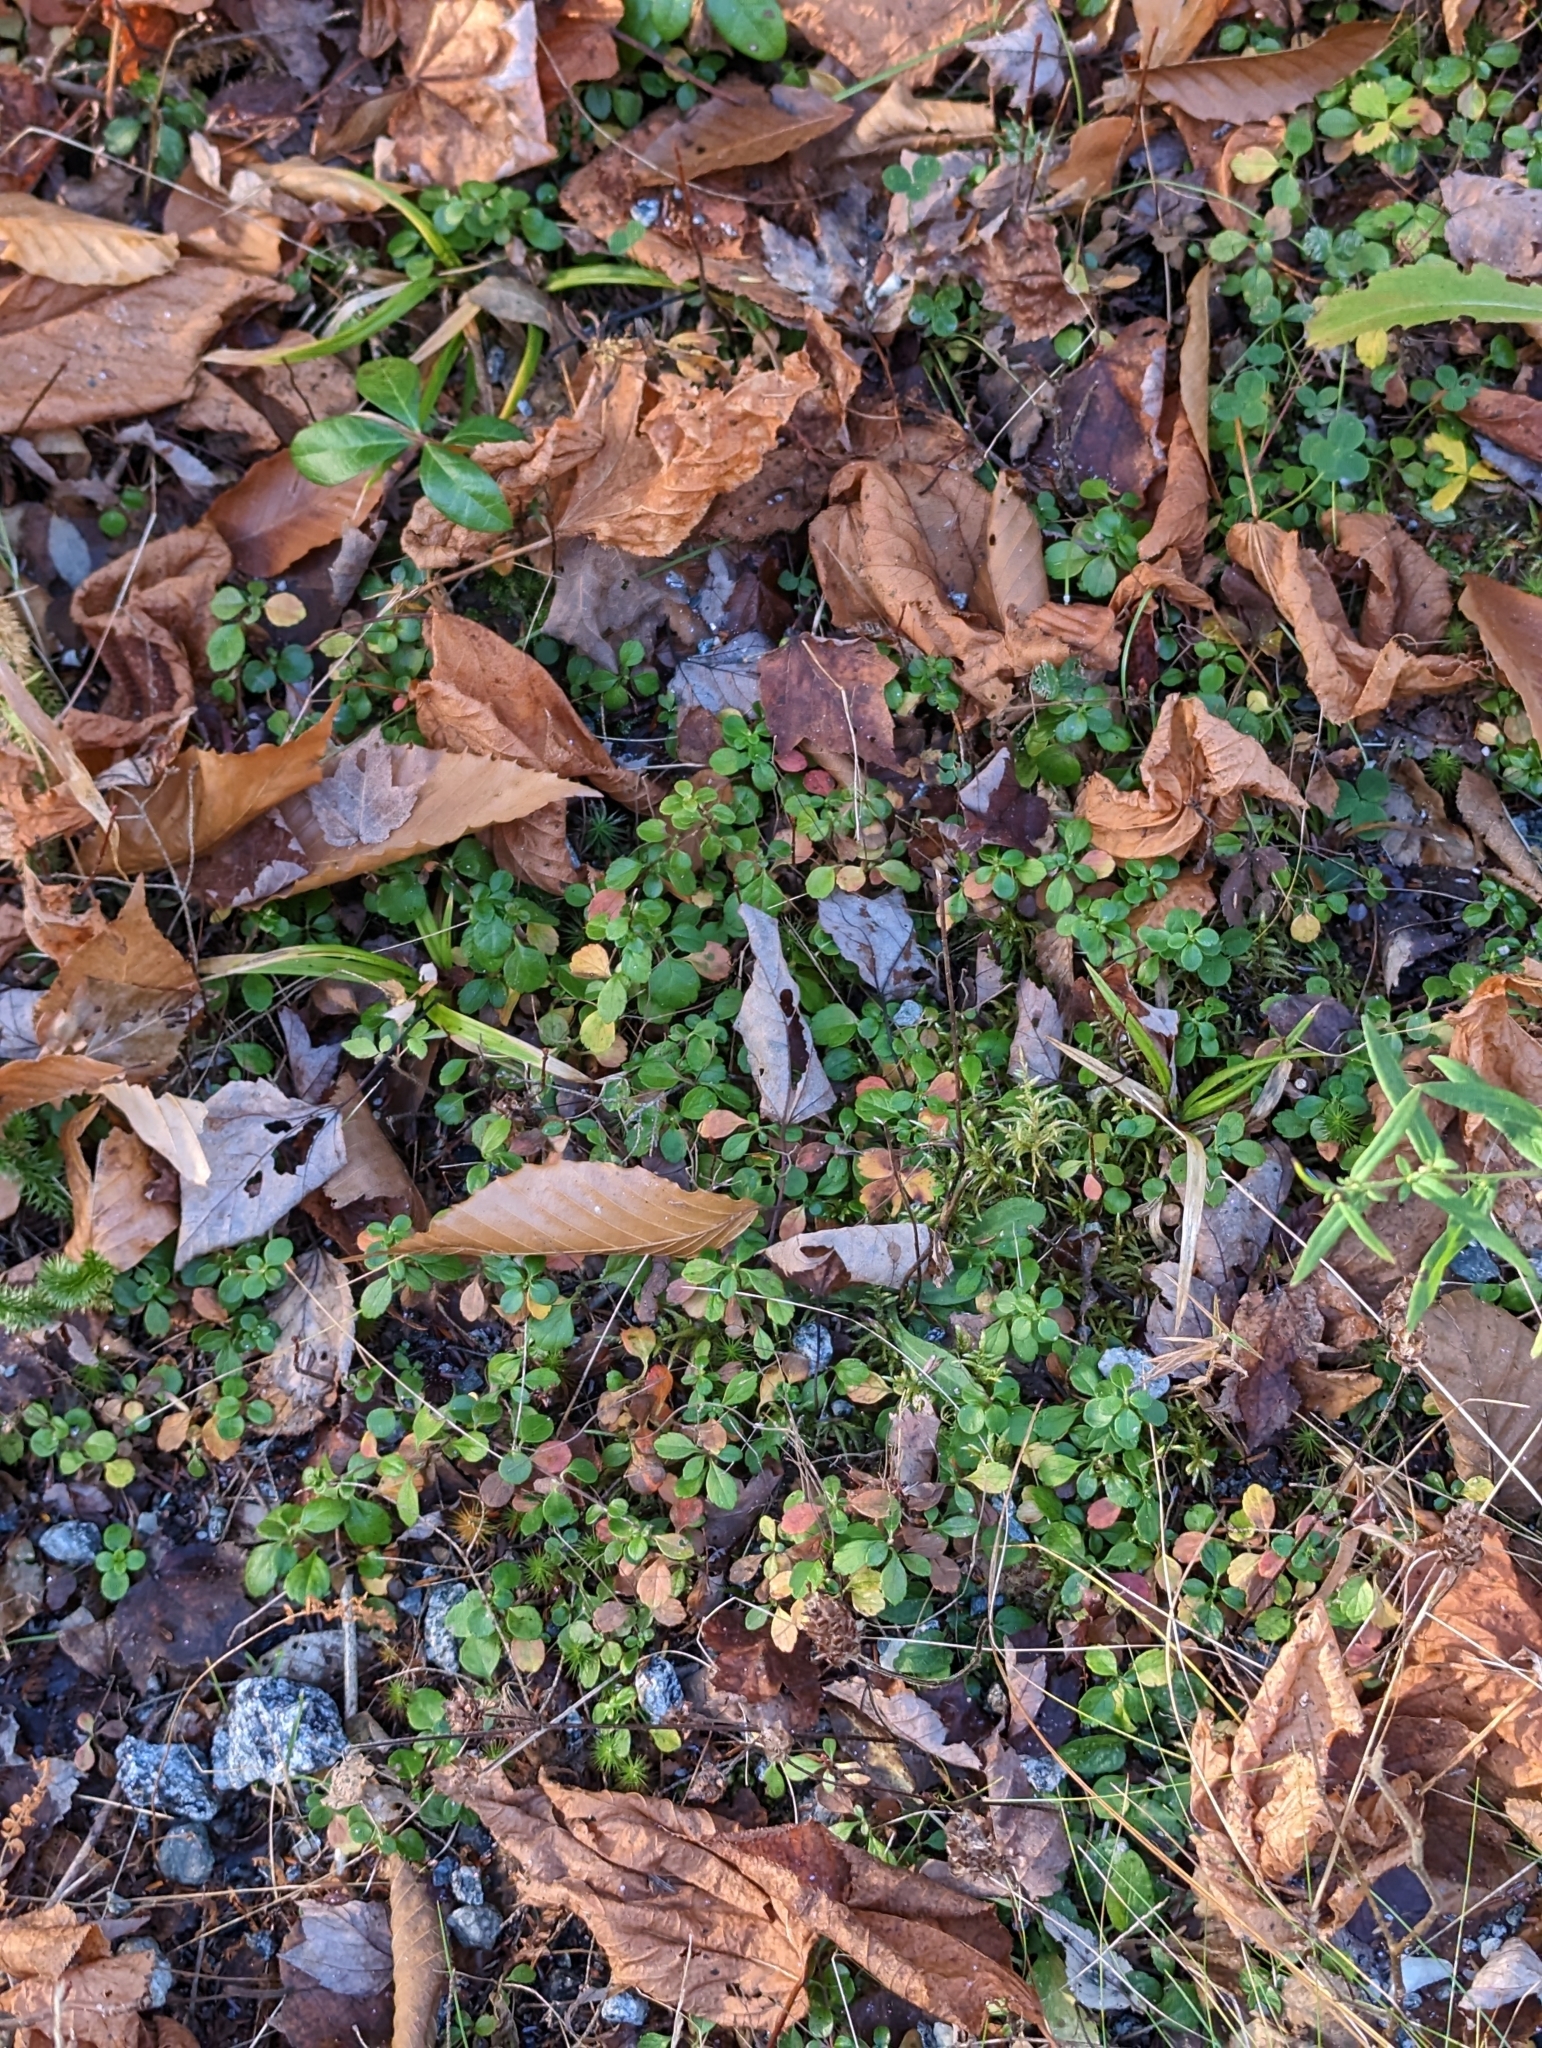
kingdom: Plantae
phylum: Tracheophyta
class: Magnoliopsida
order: Dipsacales
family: Caprifoliaceae
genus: Linnaea
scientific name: Linnaea borealis
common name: Twinflower
